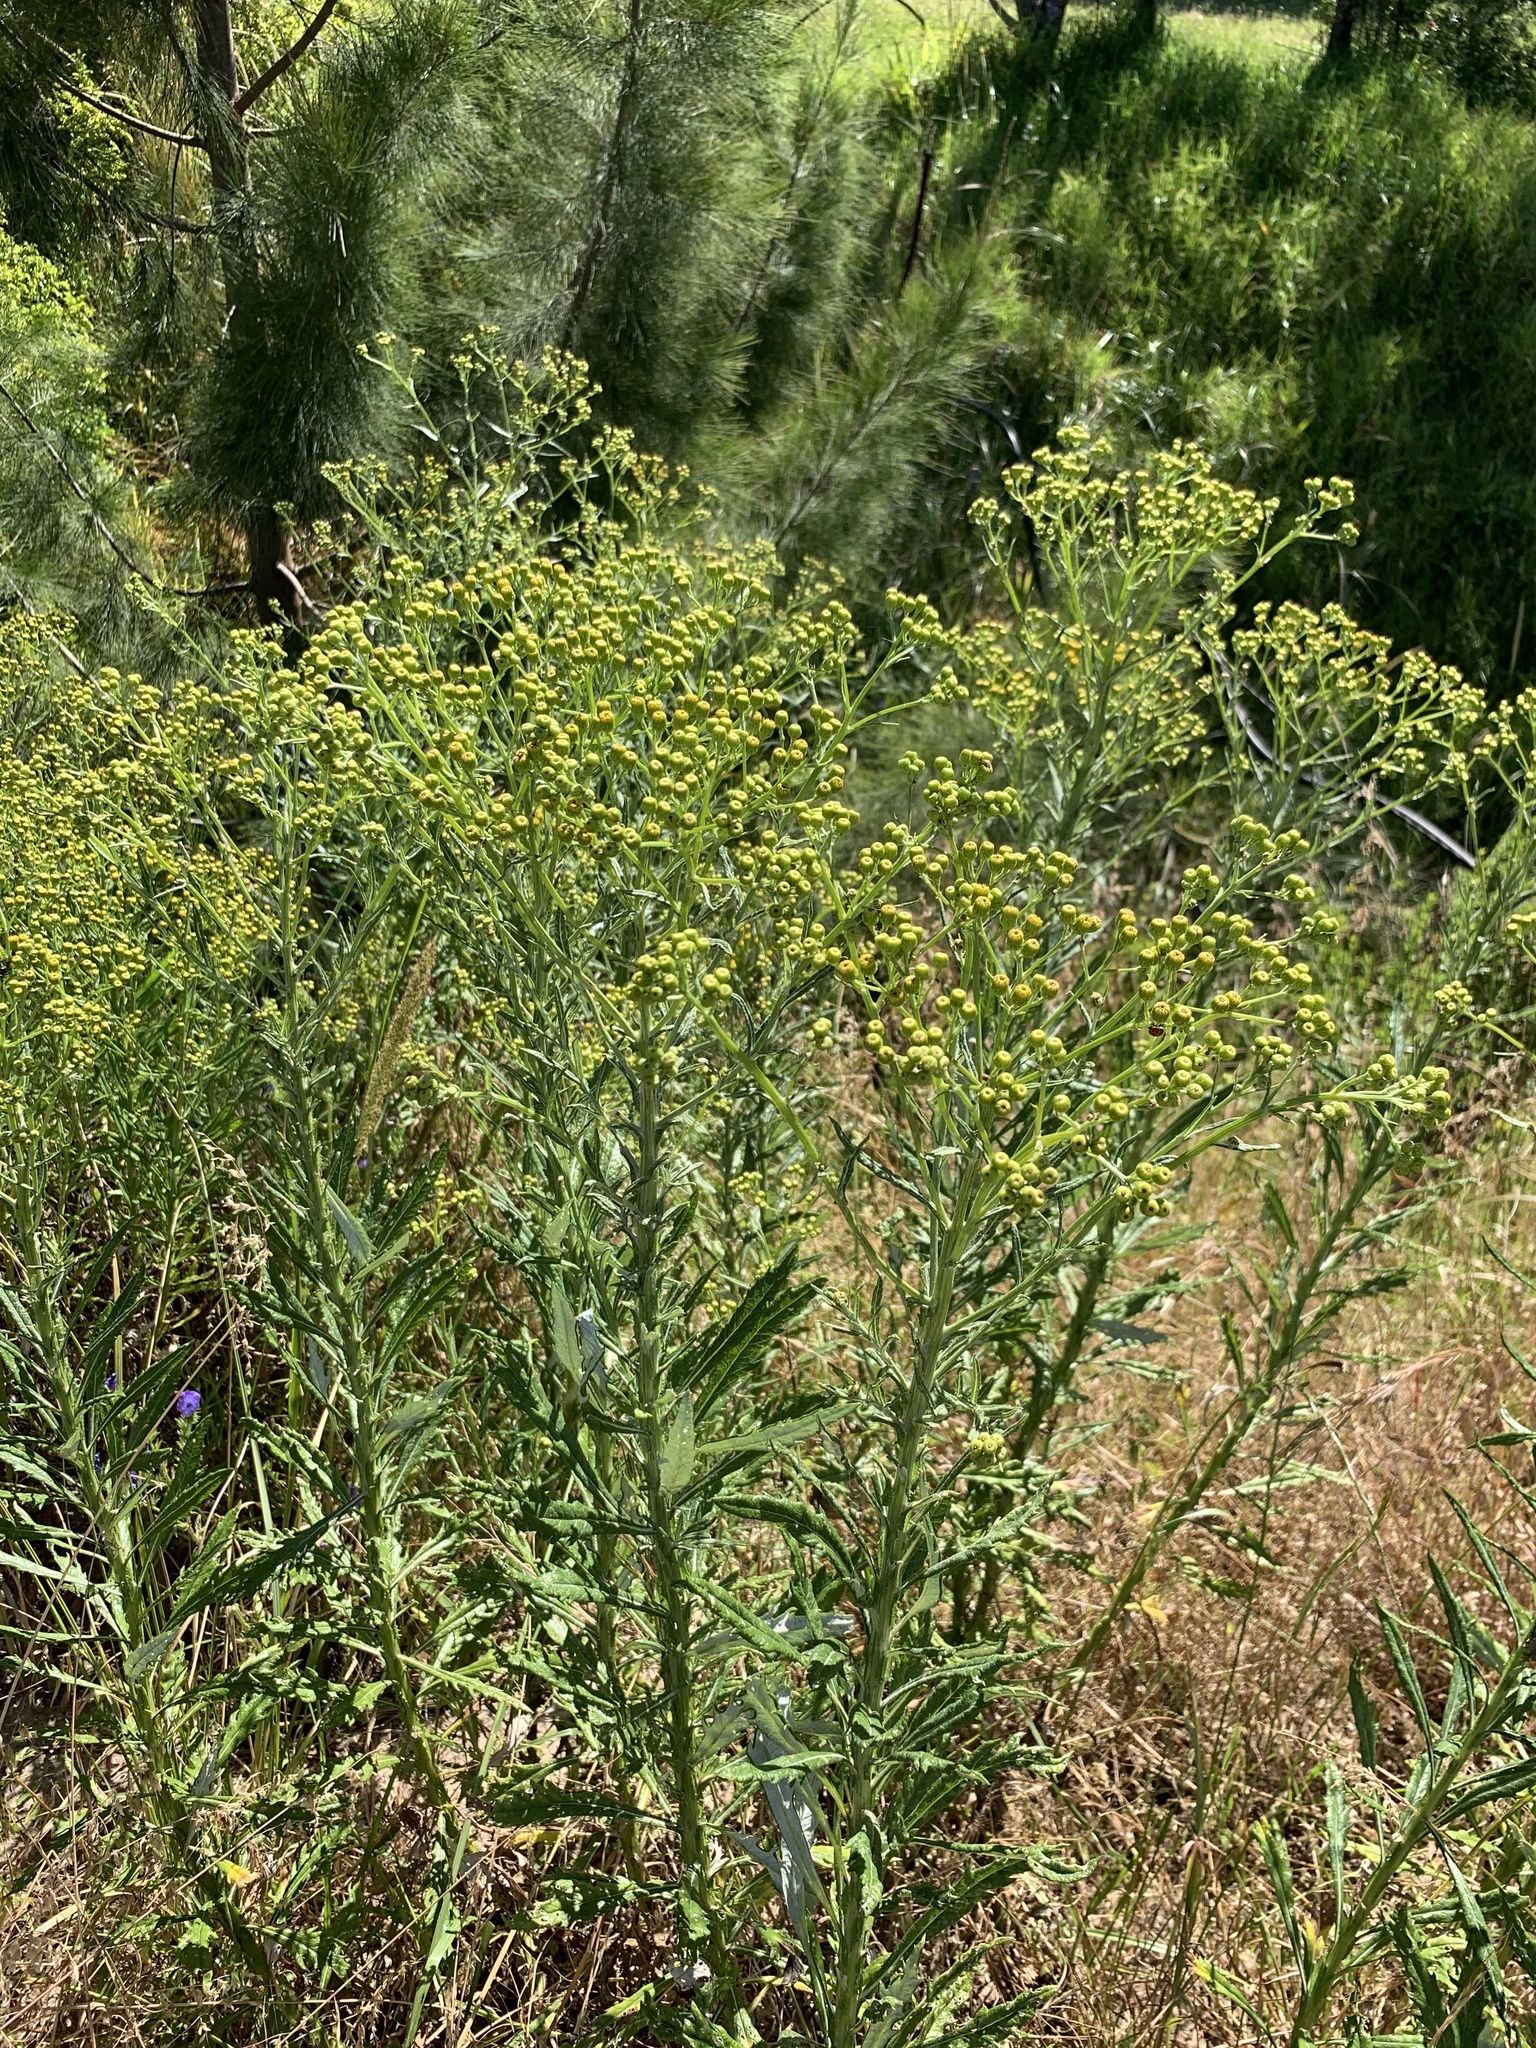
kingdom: Plantae
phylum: Tracheophyta
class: Magnoliopsida
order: Asterales
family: Asteraceae
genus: Senecio
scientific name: Senecio pterophorus
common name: Shoddy ragwort
